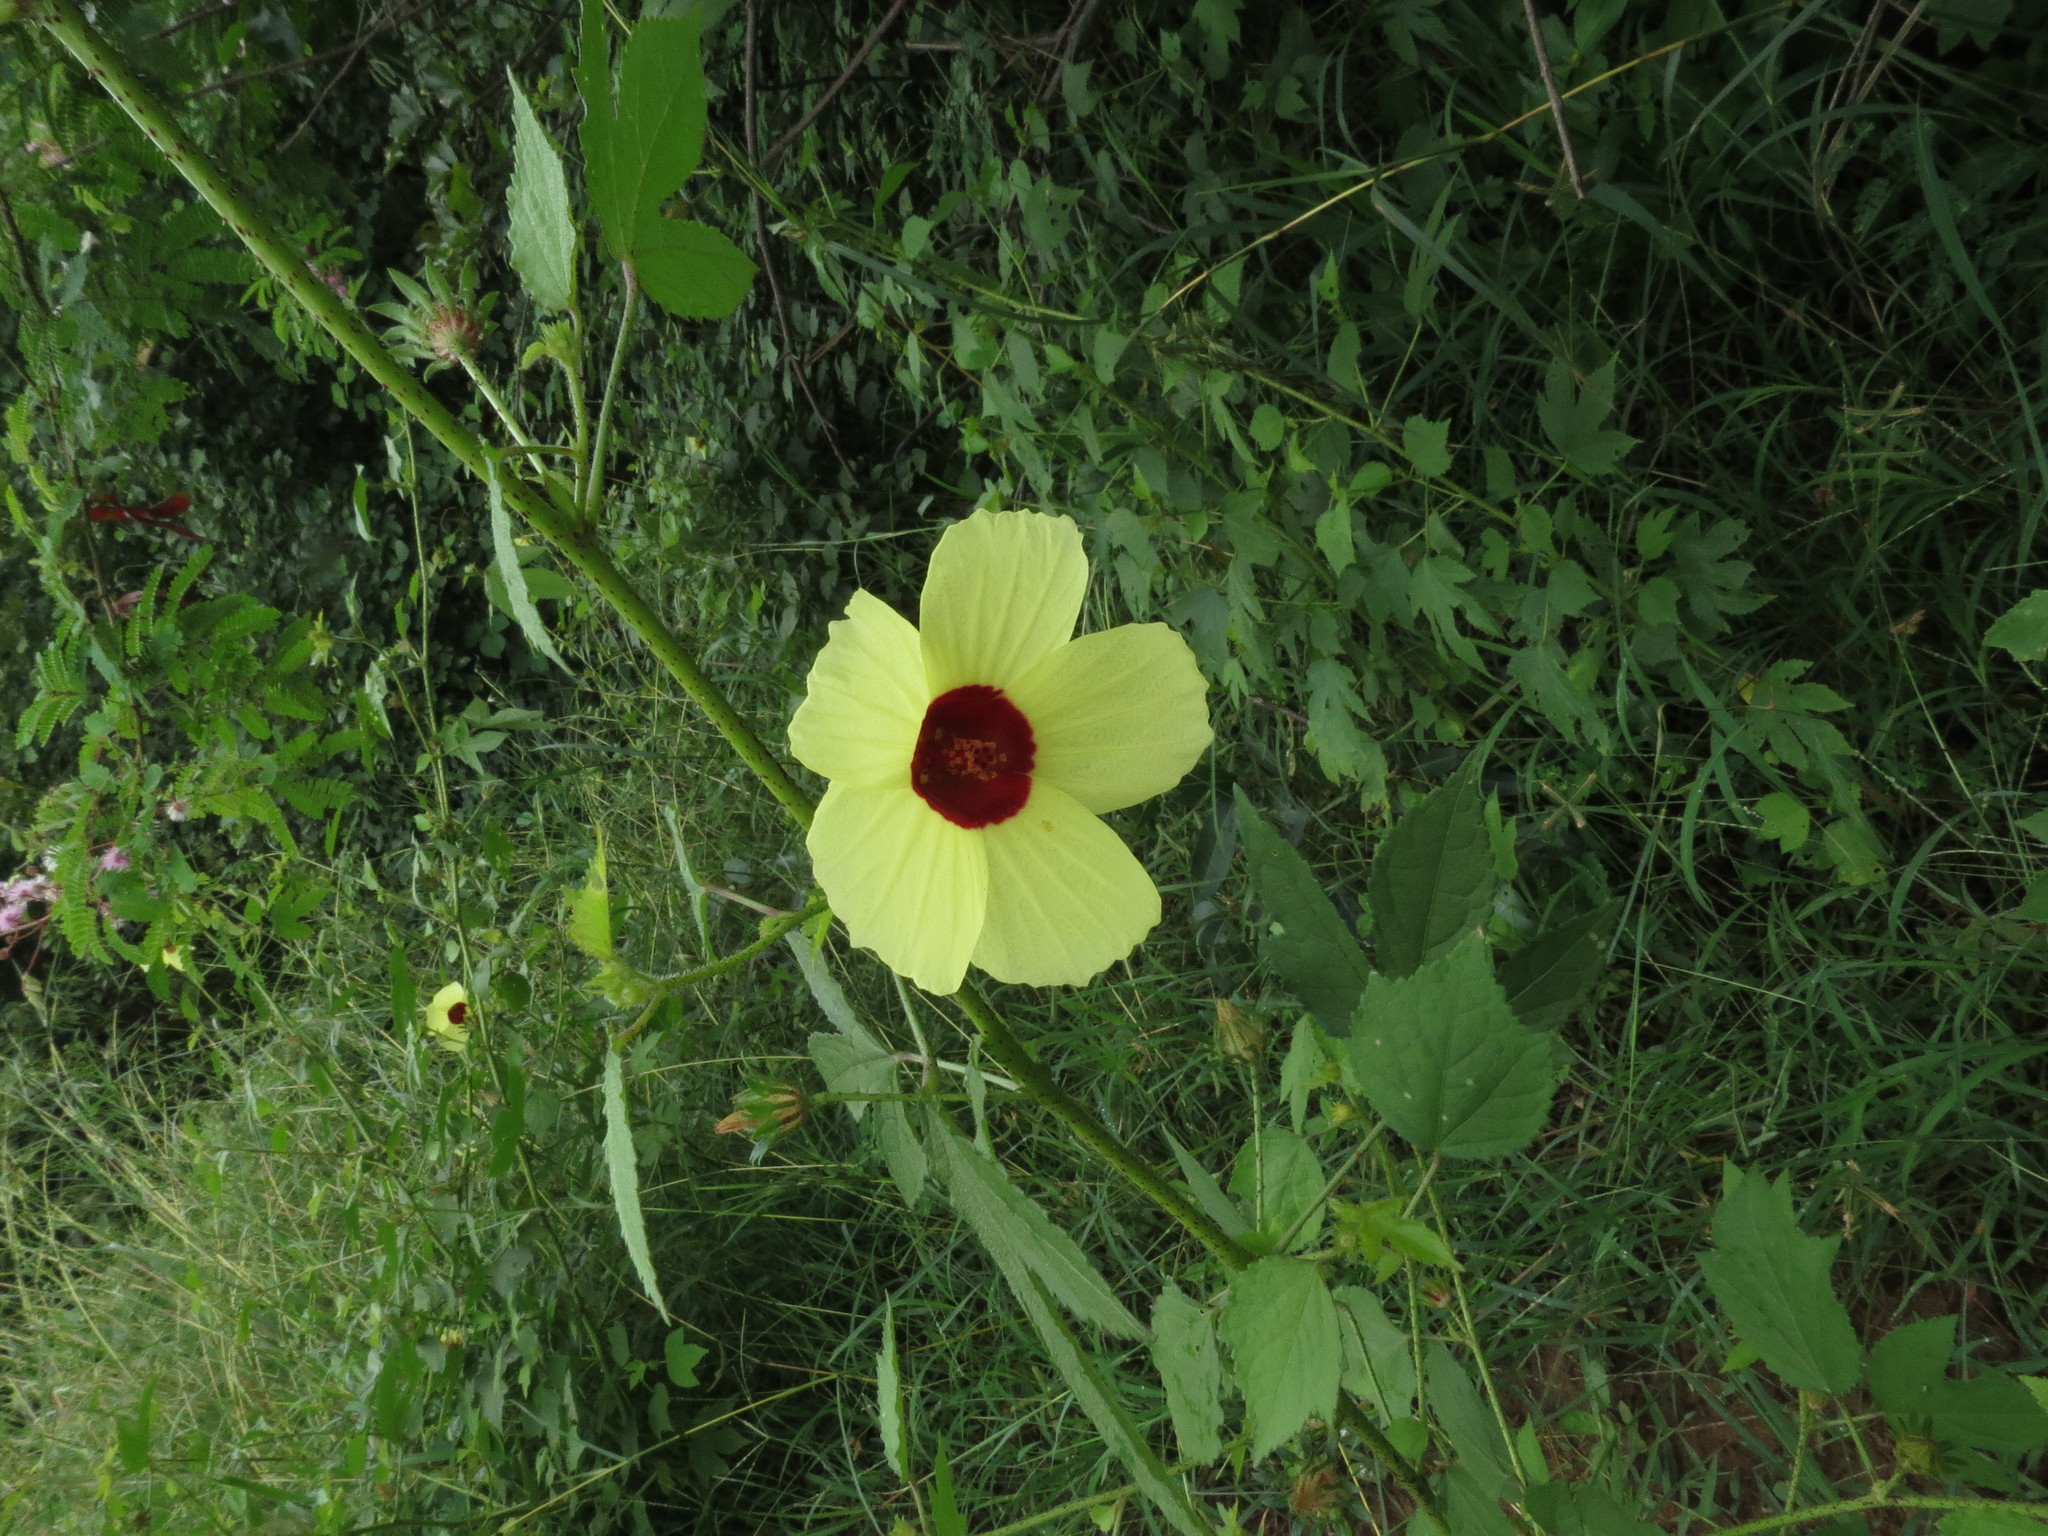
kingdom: Plantae
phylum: Tracheophyta
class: Magnoliopsida
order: Malvales
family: Malvaceae
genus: Hibiscus
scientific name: Hibiscus surattensis
